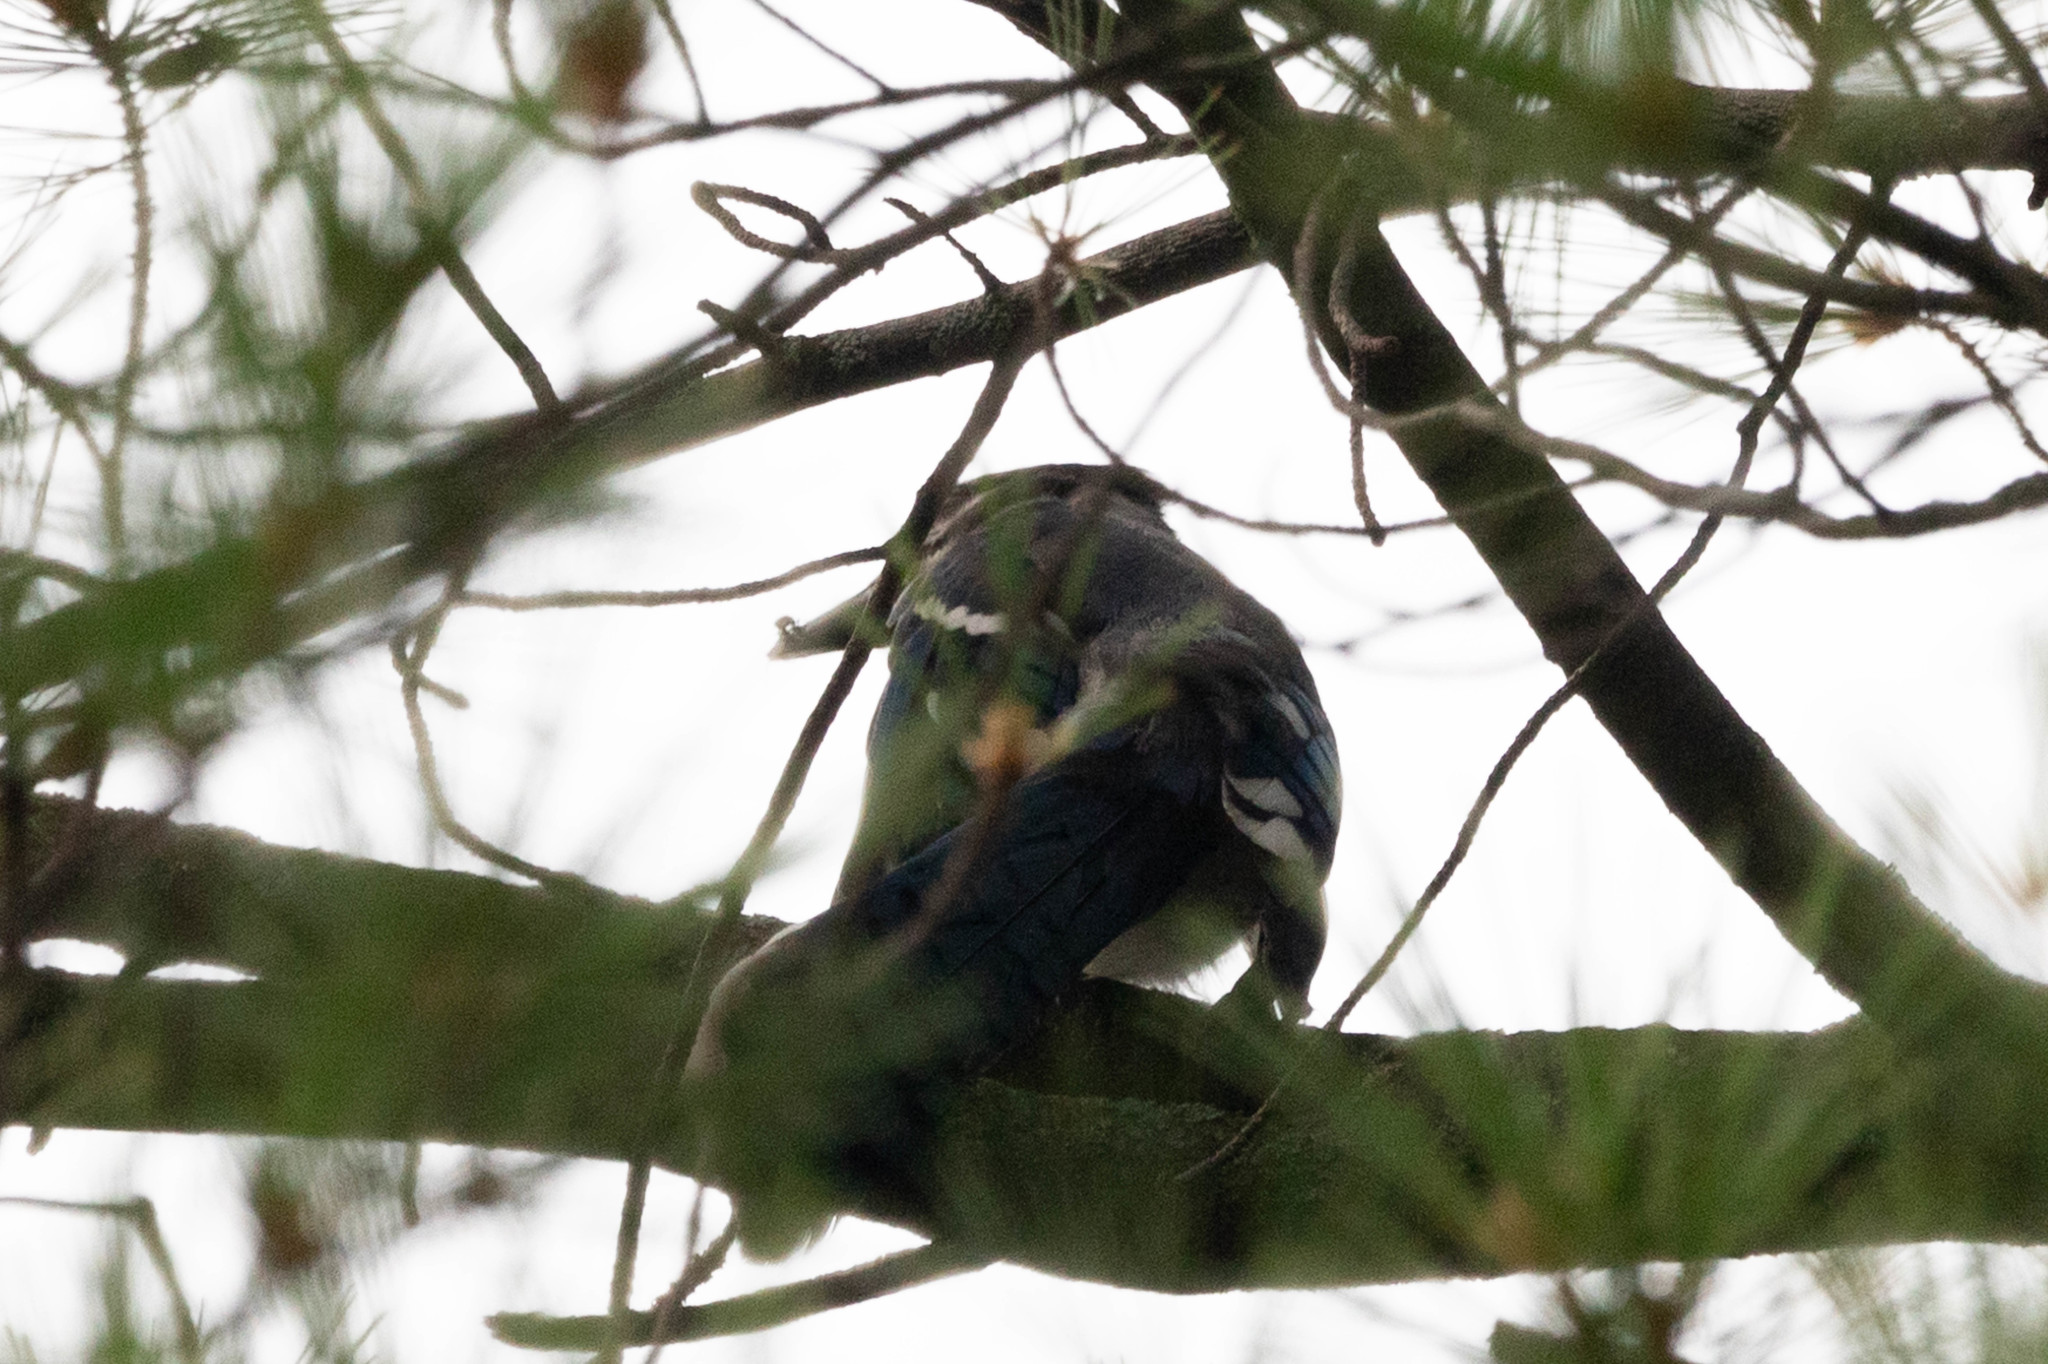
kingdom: Animalia
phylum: Chordata
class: Aves
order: Passeriformes
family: Corvidae
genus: Cyanocitta
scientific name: Cyanocitta cristata
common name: Blue jay
